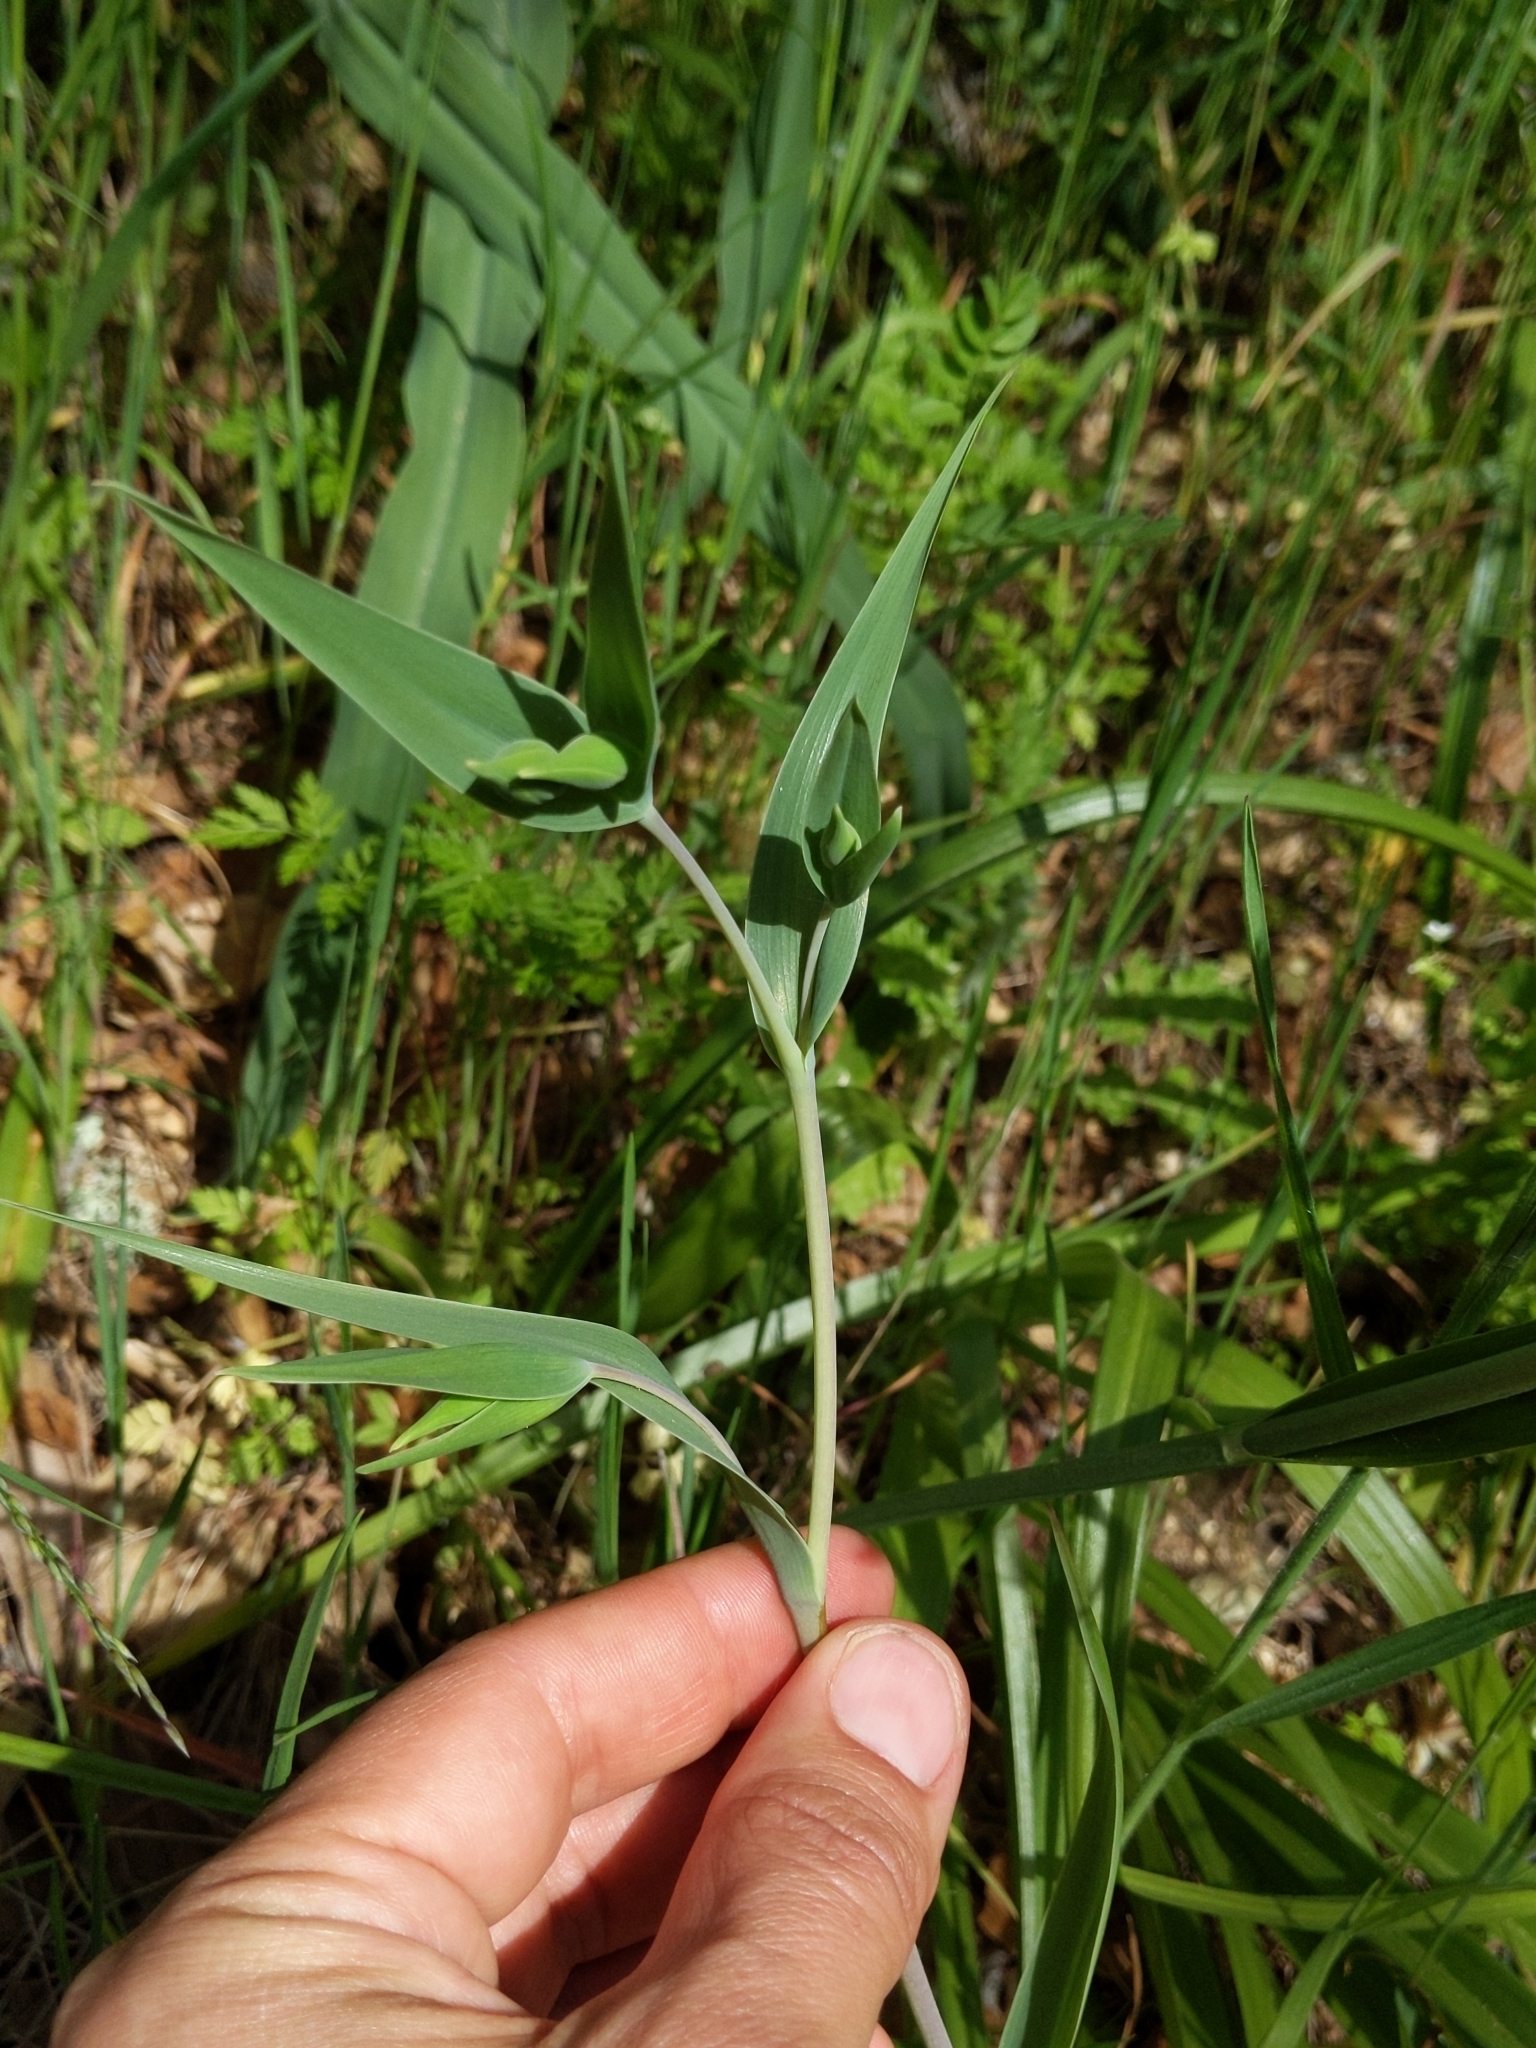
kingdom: Plantae
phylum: Tracheophyta
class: Liliopsida
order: Liliales
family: Liliaceae
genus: Calochortus
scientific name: Calochortus albus
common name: Fairy-lantern
